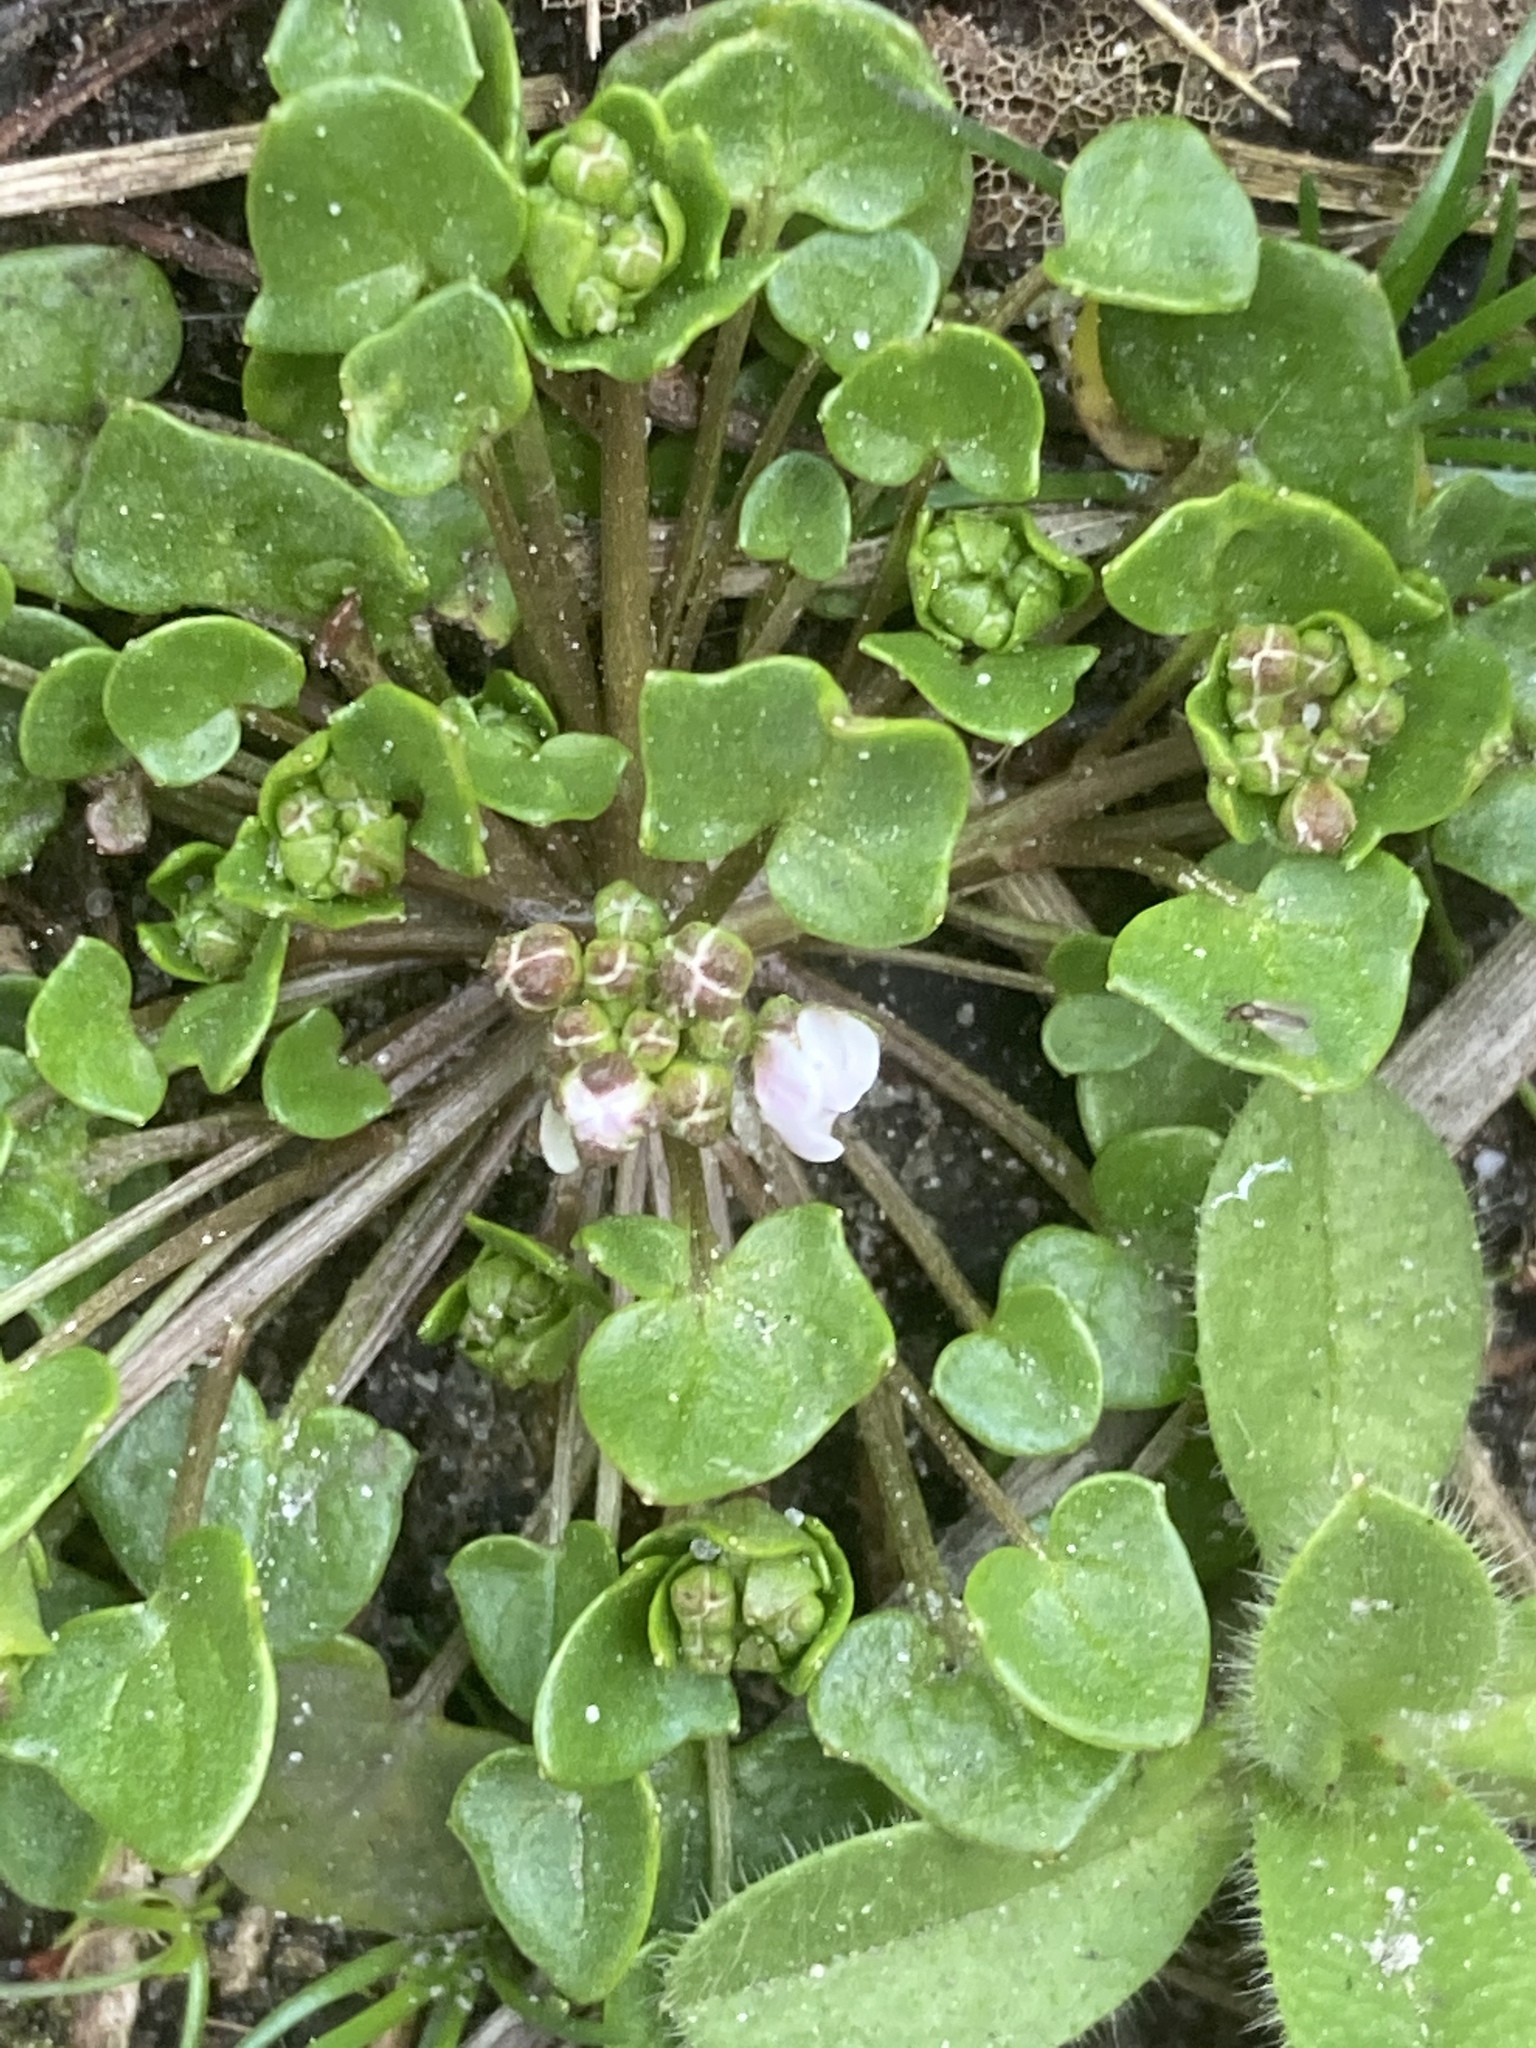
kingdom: Plantae
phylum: Tracheophyta
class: Magnoliopsida
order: Brassicales
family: Brassicaceae
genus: Cochlearia
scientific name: Cochlearia danica
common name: Early scurvygrass
